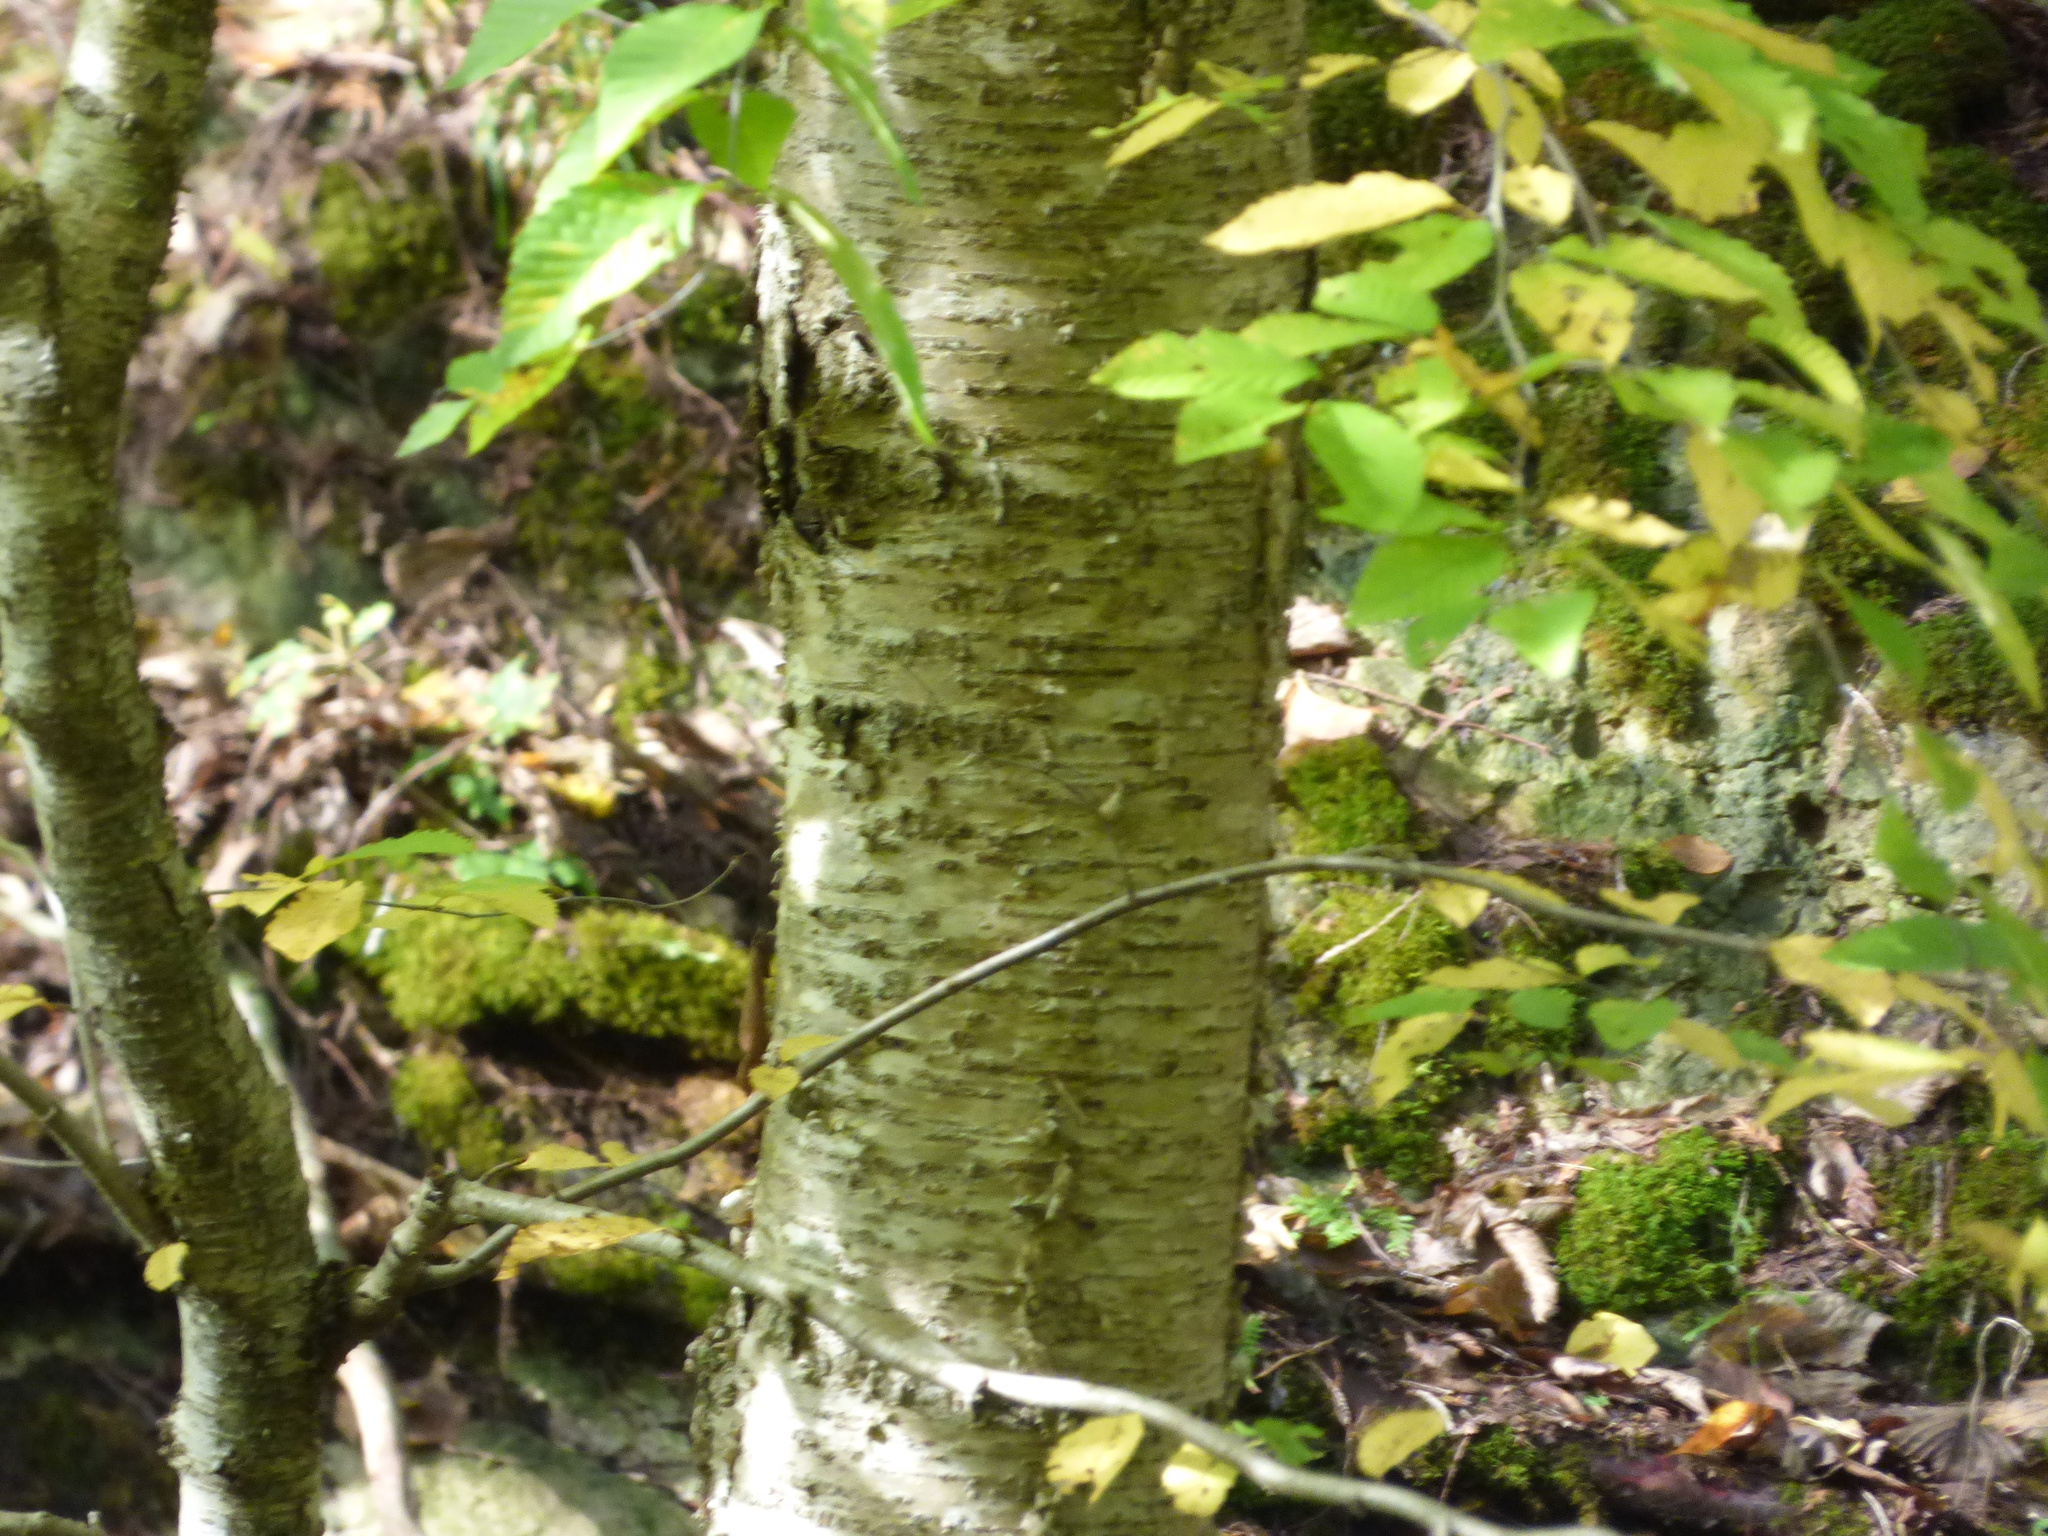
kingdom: Plantae
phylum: Tracheophyta
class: Magnoliopsida
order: Fagales
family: Betulaceae
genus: Betula
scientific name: Betula alleghaniensis
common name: Yellow birch
